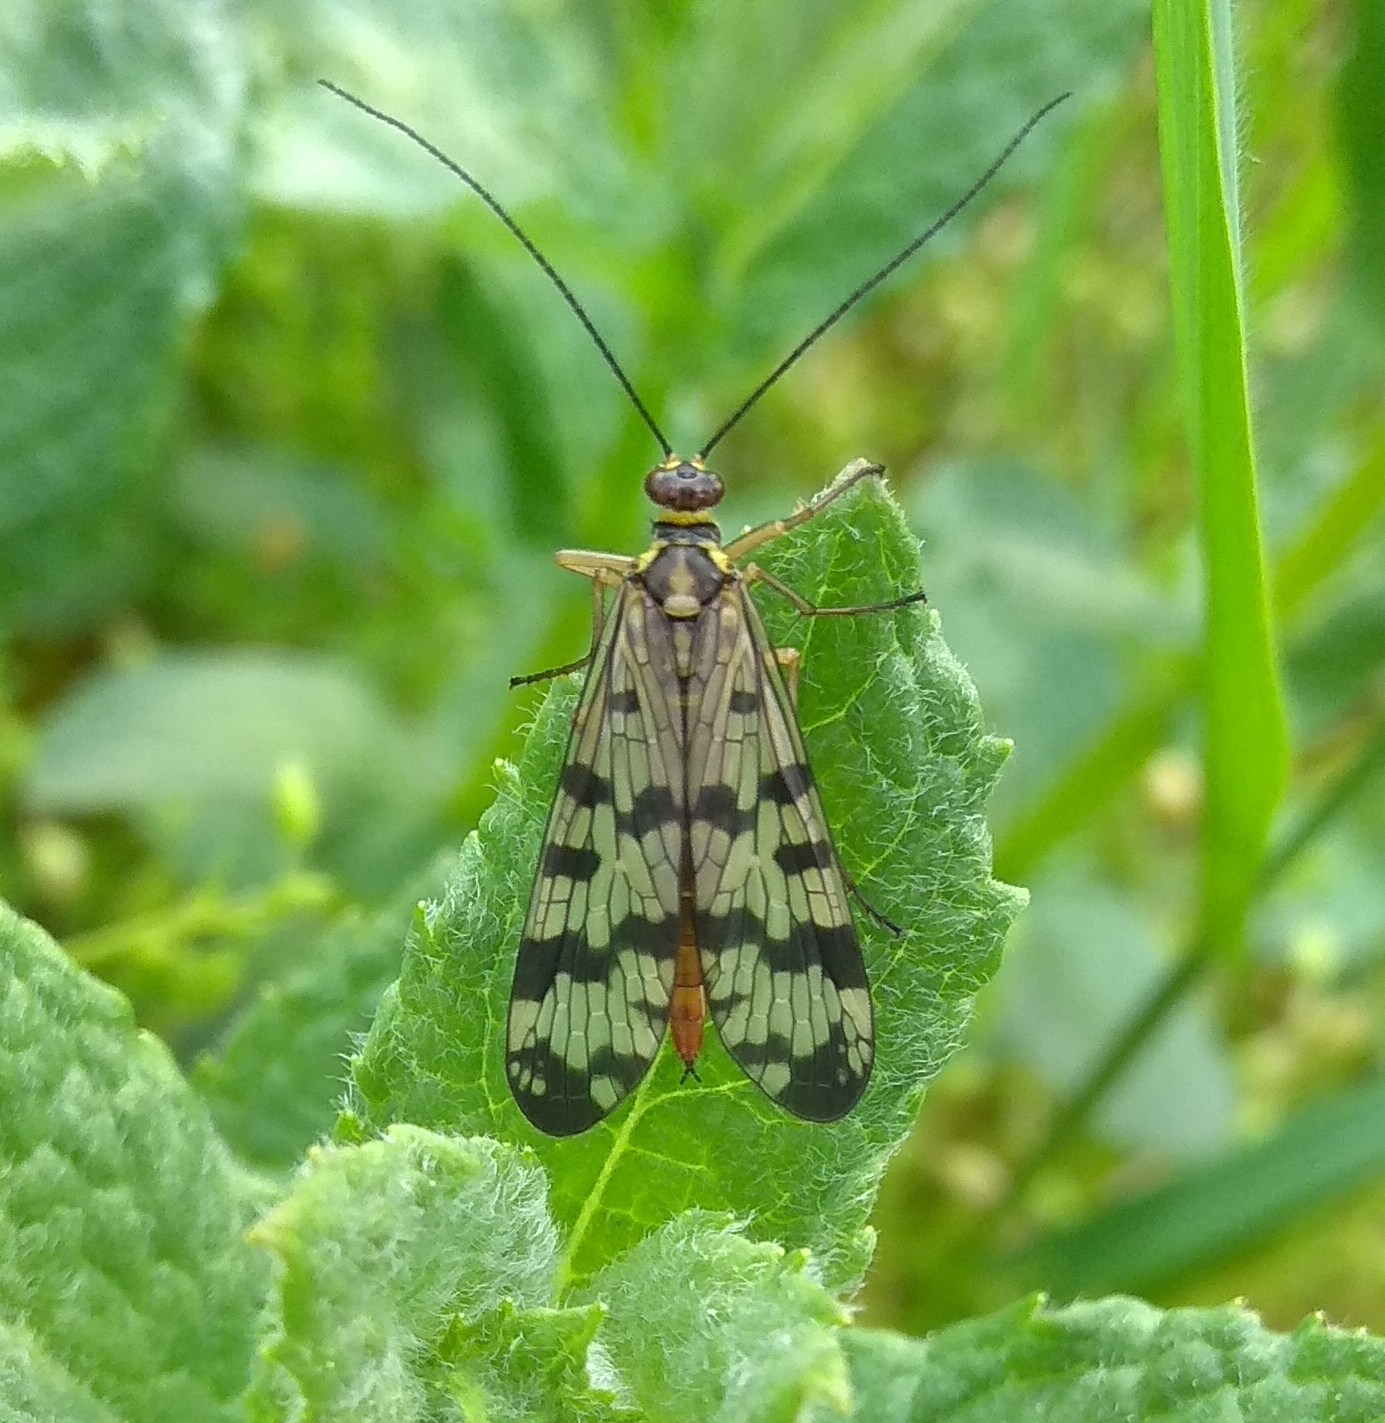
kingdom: Animalia
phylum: Arthropoda
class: Insecta
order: Mecoptera
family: Panorpidae
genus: Panorpa
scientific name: Panorpa communis
